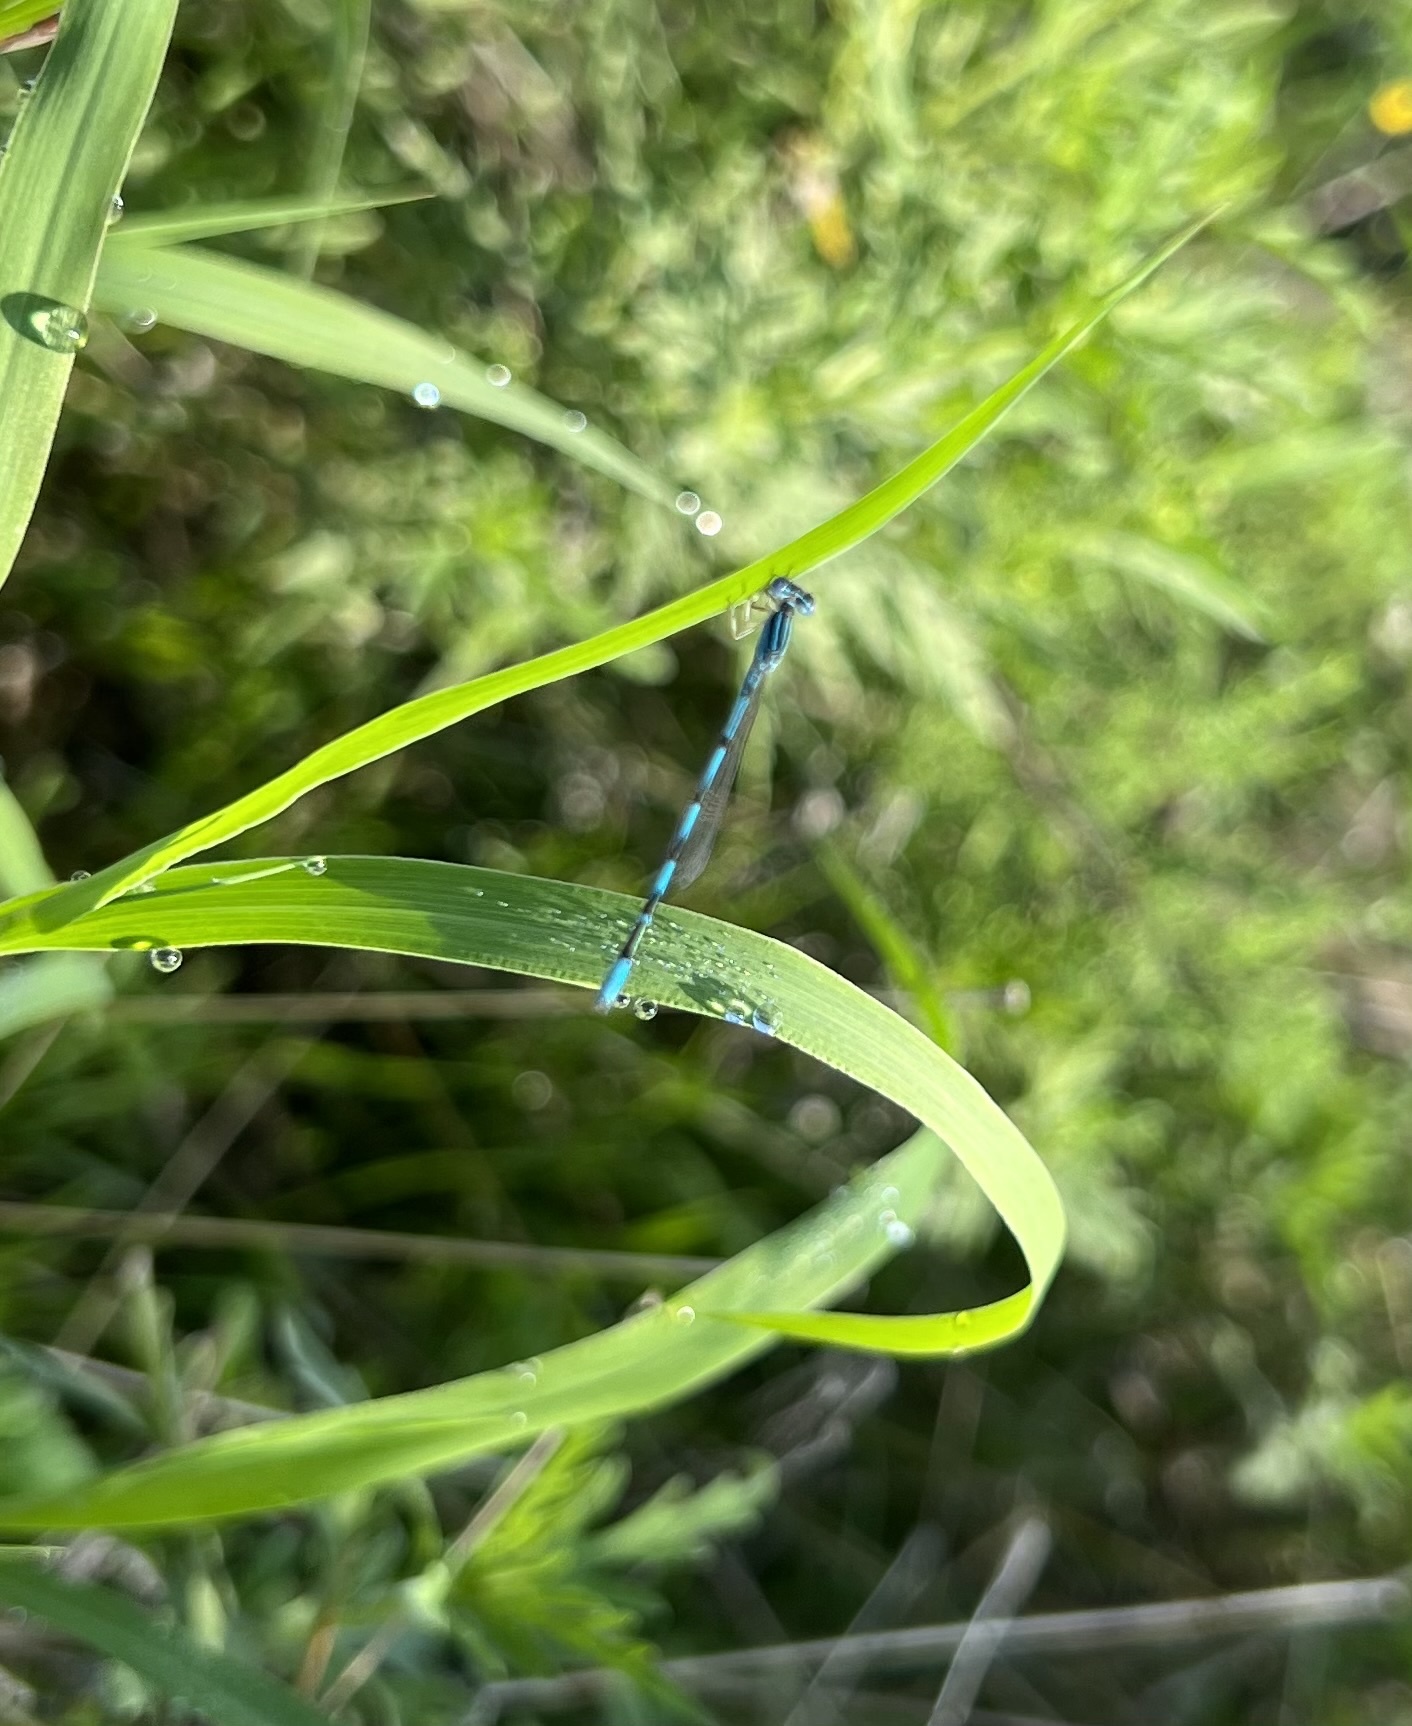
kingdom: Animalia
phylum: Arthropoda
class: Insecta
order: Odonata
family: Coenagrionidae
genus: Enallagma
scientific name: Enallagma basidens
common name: Double-striped bluet
